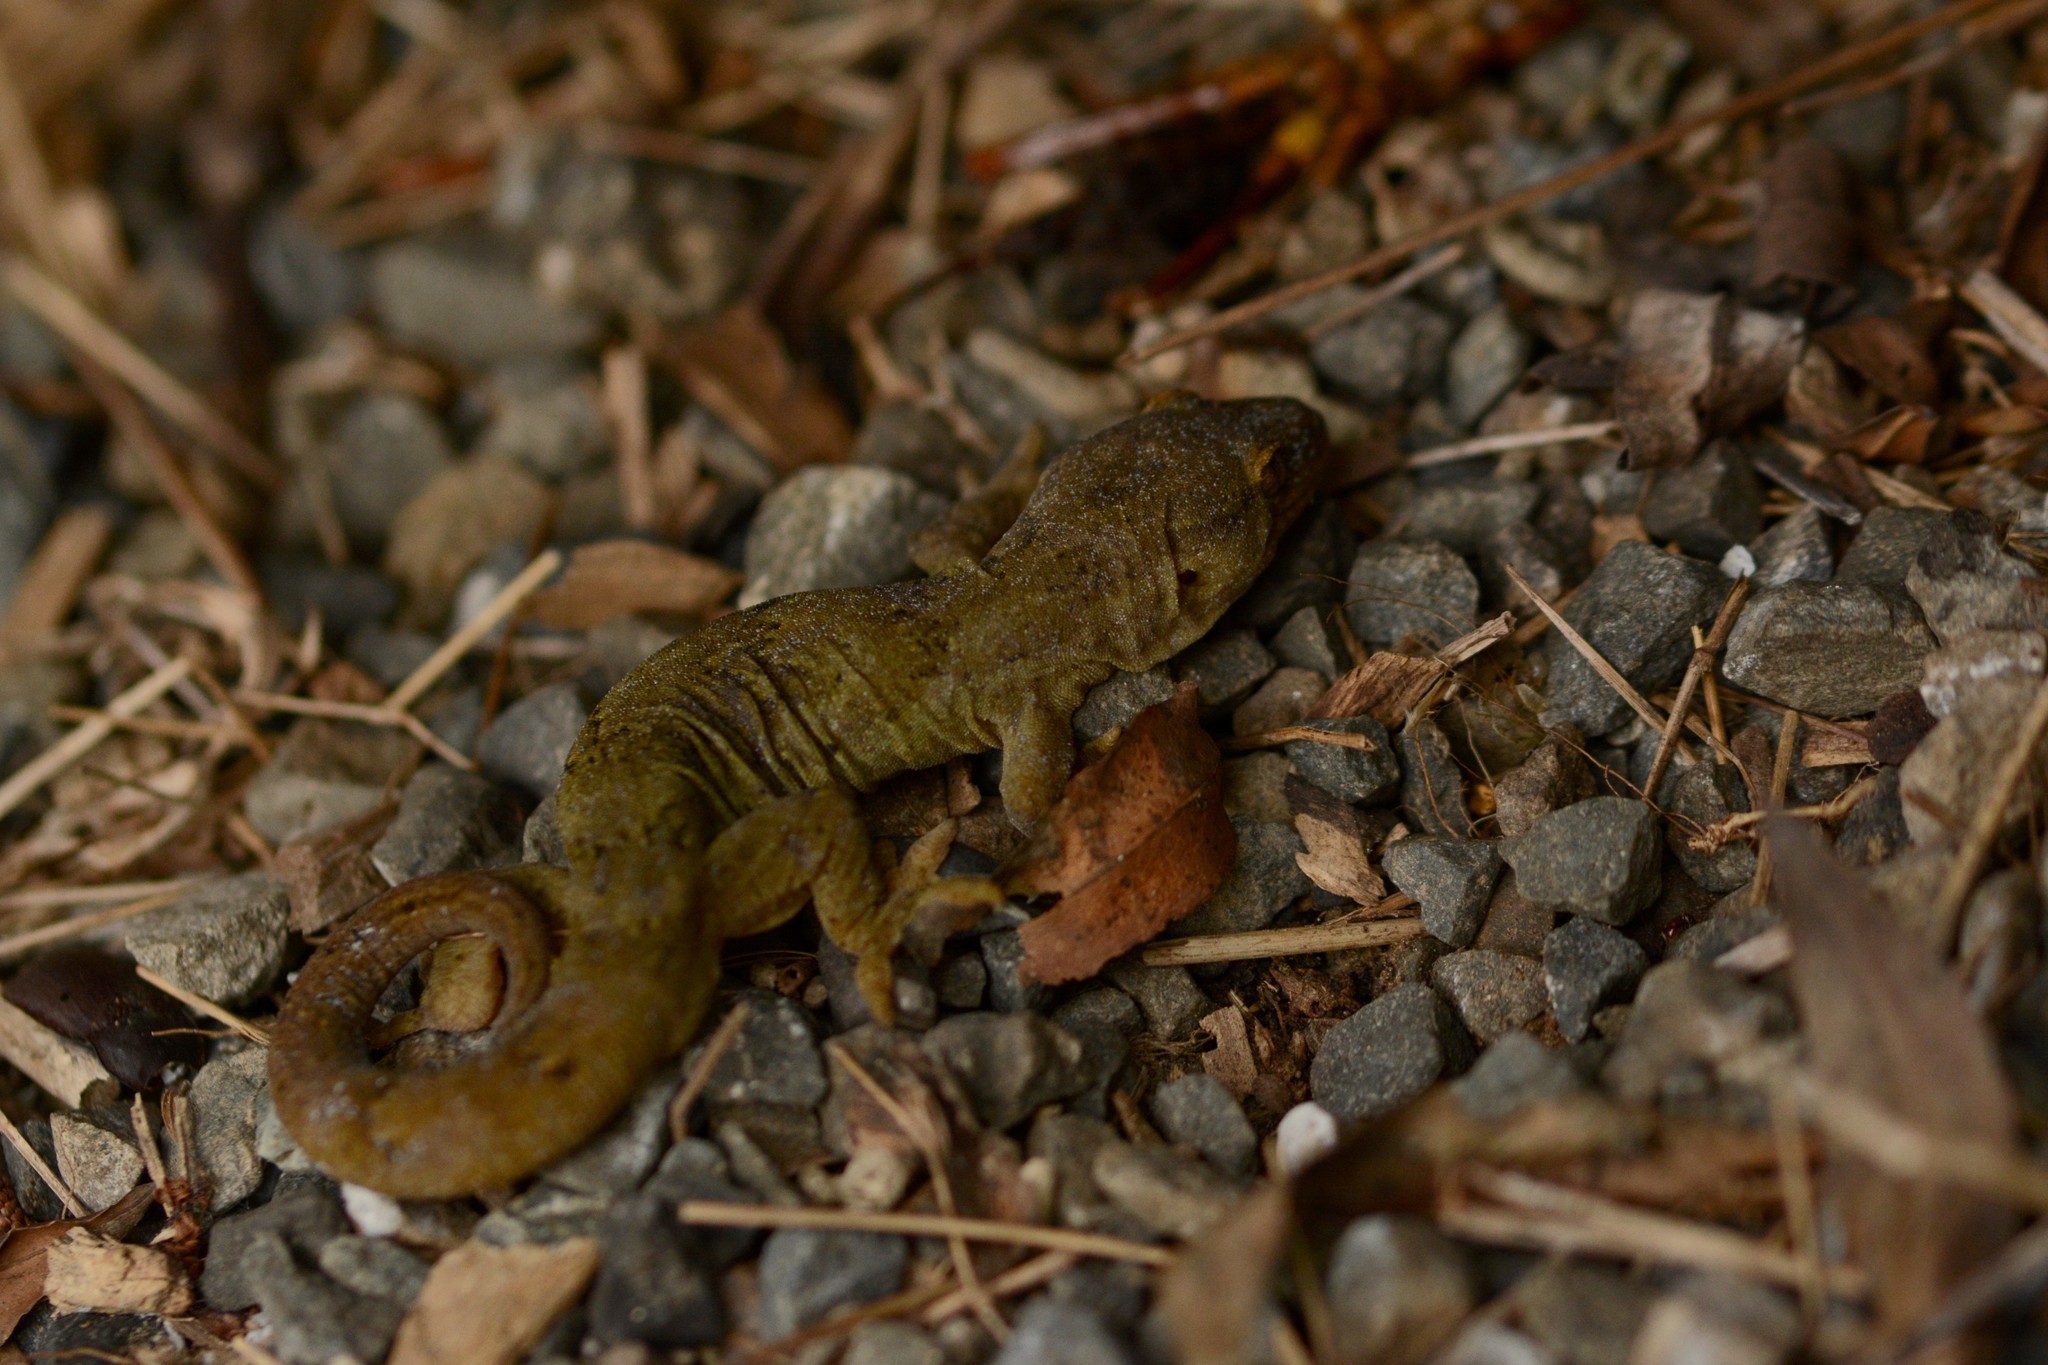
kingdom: Animalia
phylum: Chordata
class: Squamata
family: Diplodactylidae
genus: Woodworthia
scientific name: Woodworthia maculata
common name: Raukawa gecko
